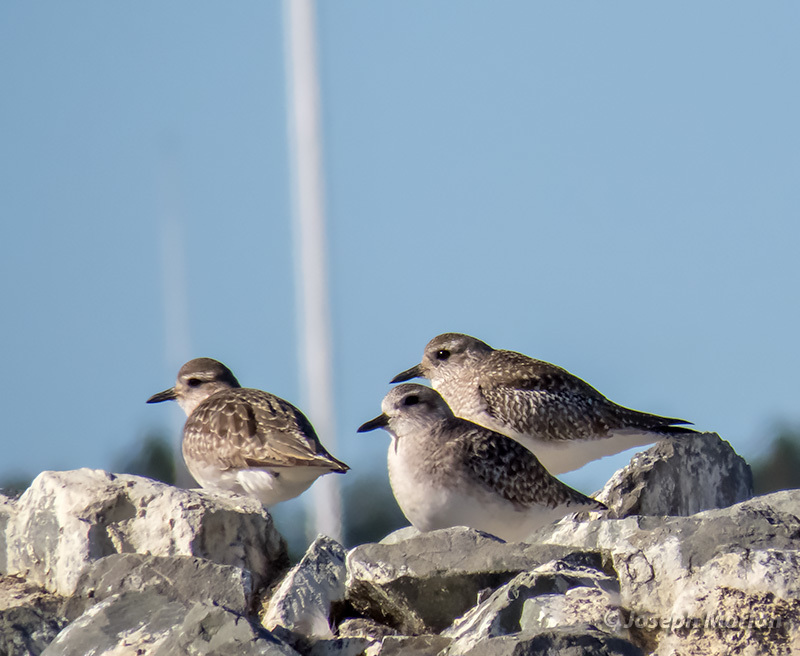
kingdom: Animalia
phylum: Chordata
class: Aves
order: Charadriiformes
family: Charadriidae
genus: Pluvialis
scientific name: Pluvialis squatarola
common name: Grey plover
